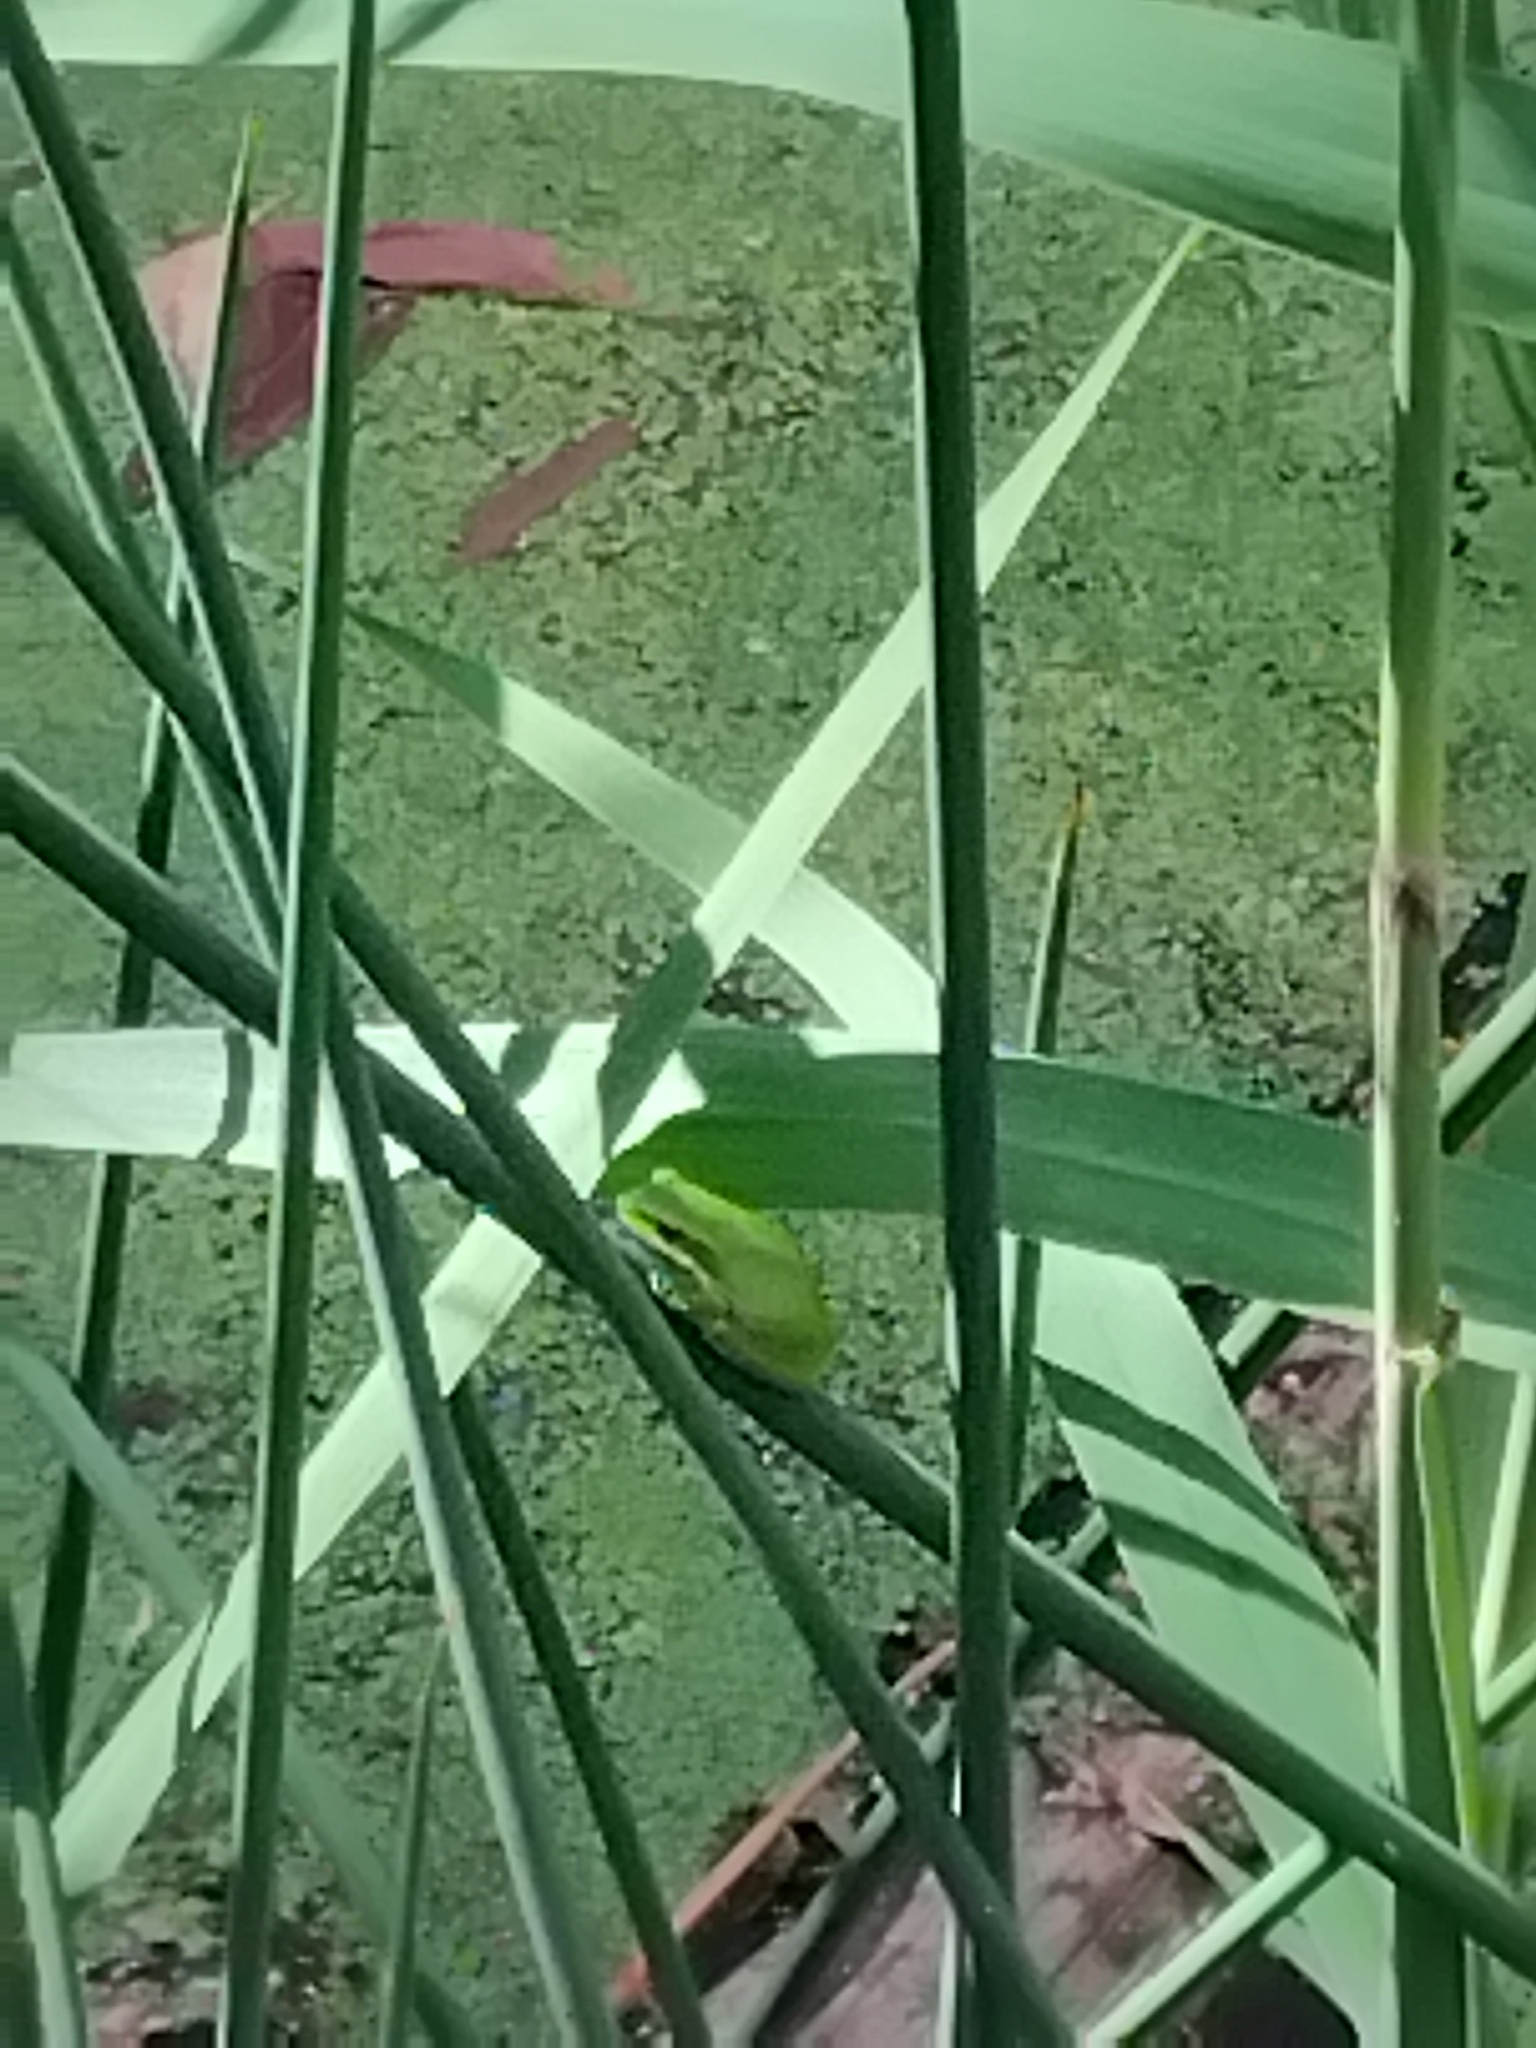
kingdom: Animalia
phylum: Chordata
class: Amphibia
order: Anura
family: Pelodryadidae
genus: Litoria
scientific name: Litoria fallax
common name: Eastern dwarf treefrog
